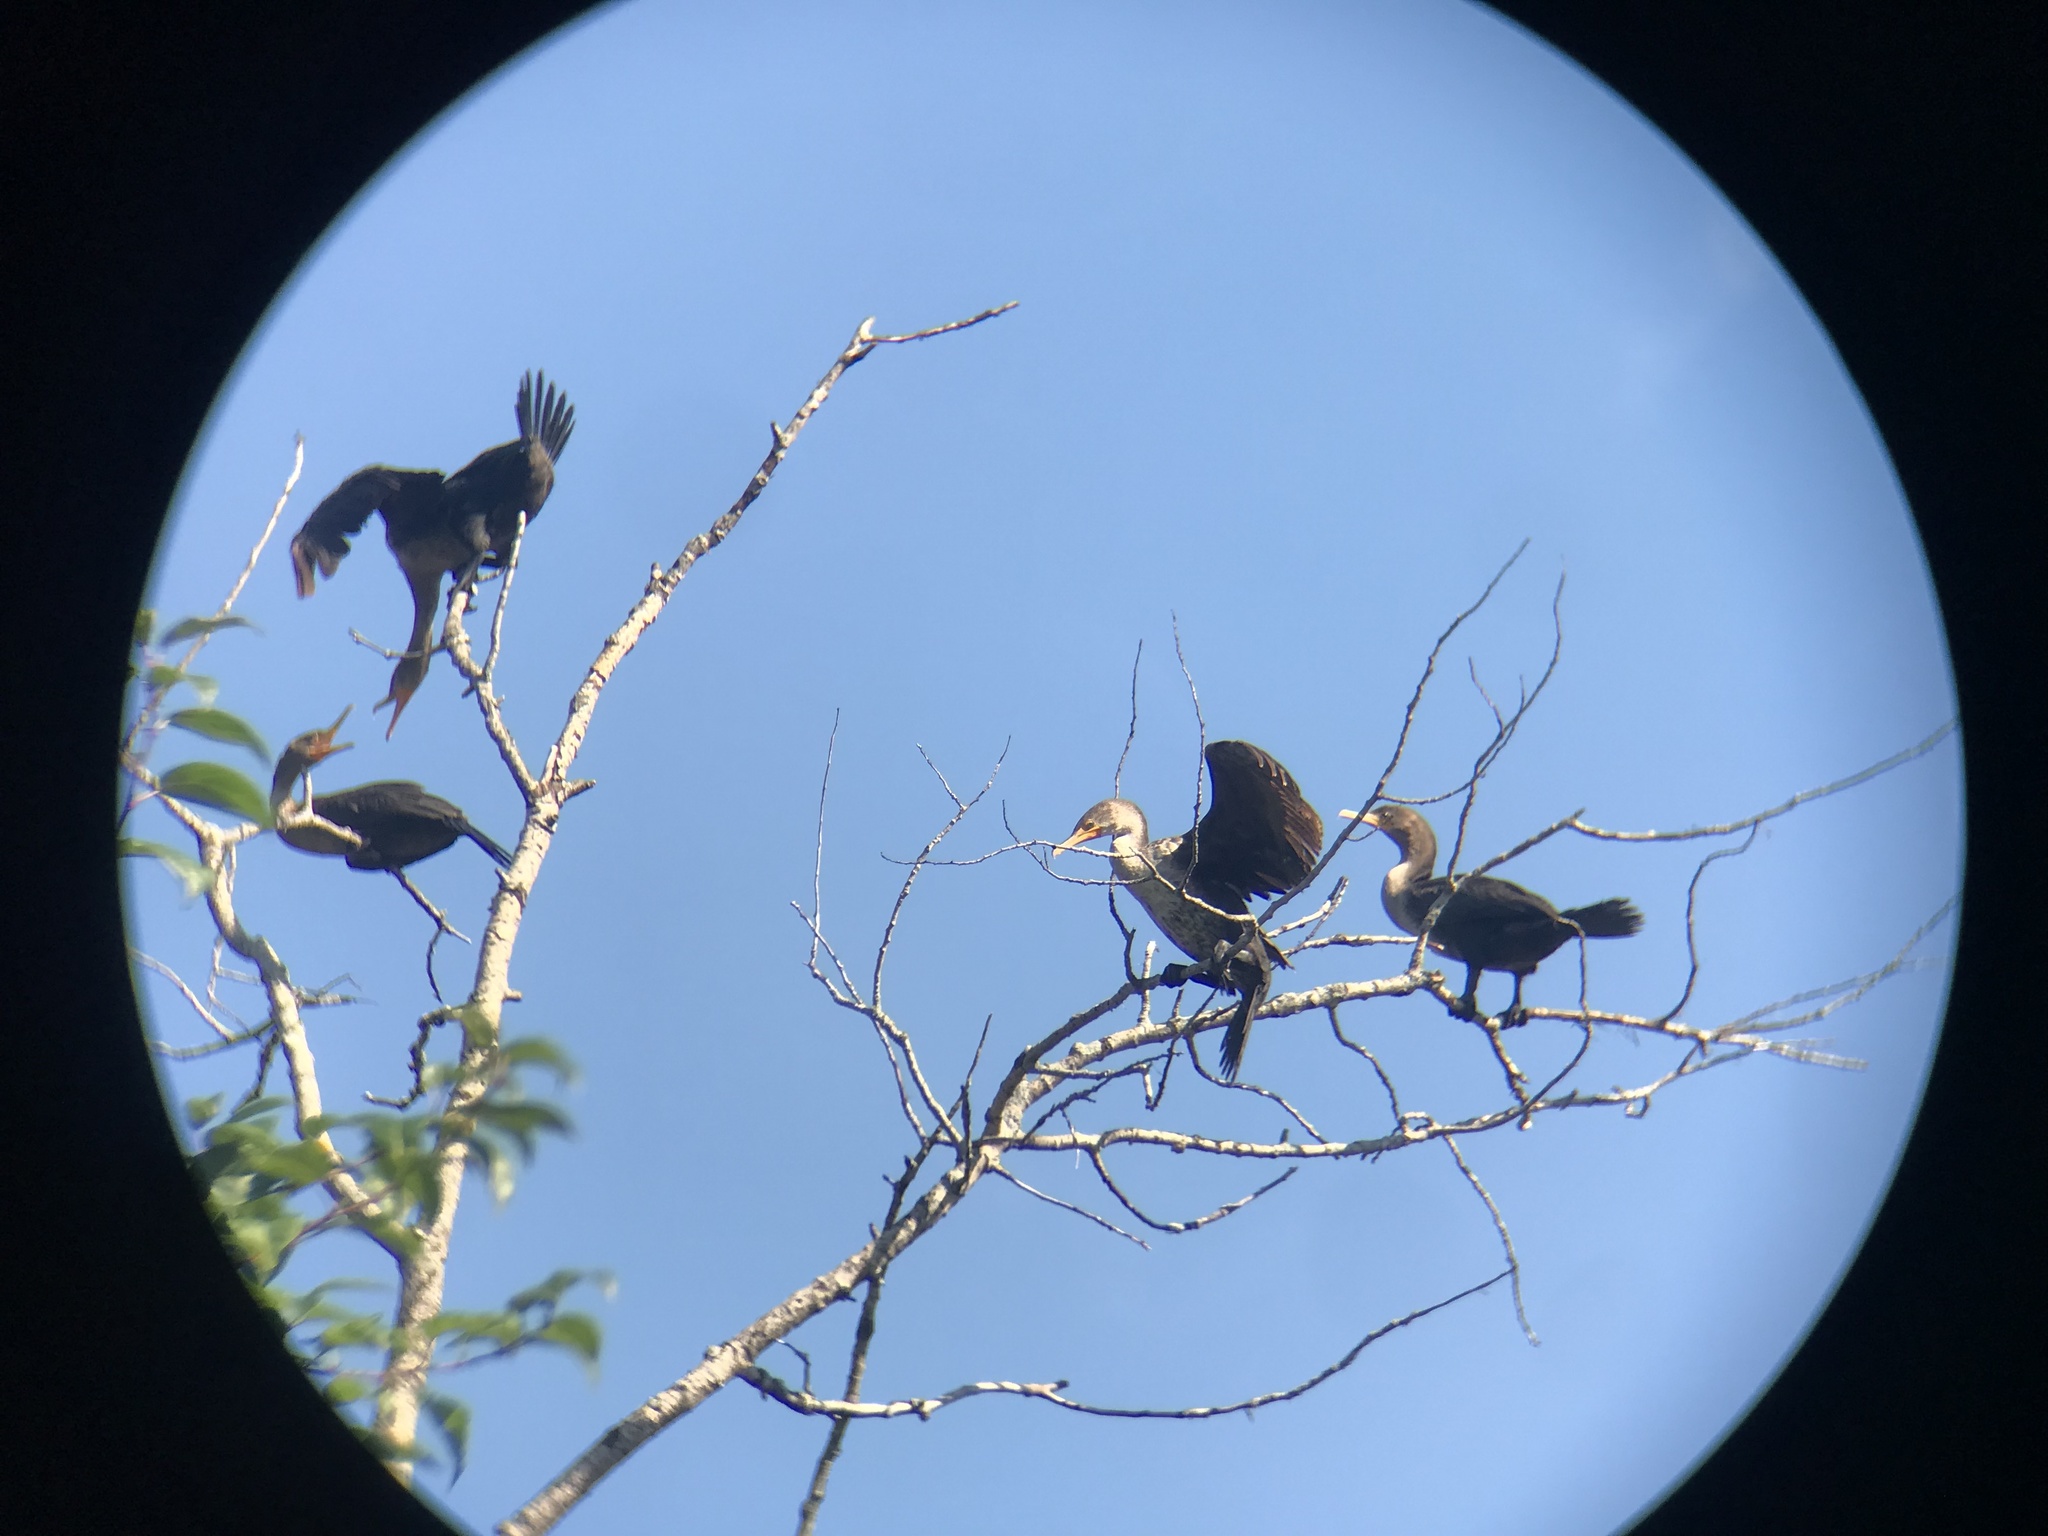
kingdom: Animalia
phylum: Chordata
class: Aves
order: Suliformes
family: Phalacrocoracidae
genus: Phalacrocorax
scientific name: Phalacrocorax auritus
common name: Double-crested cormorant
